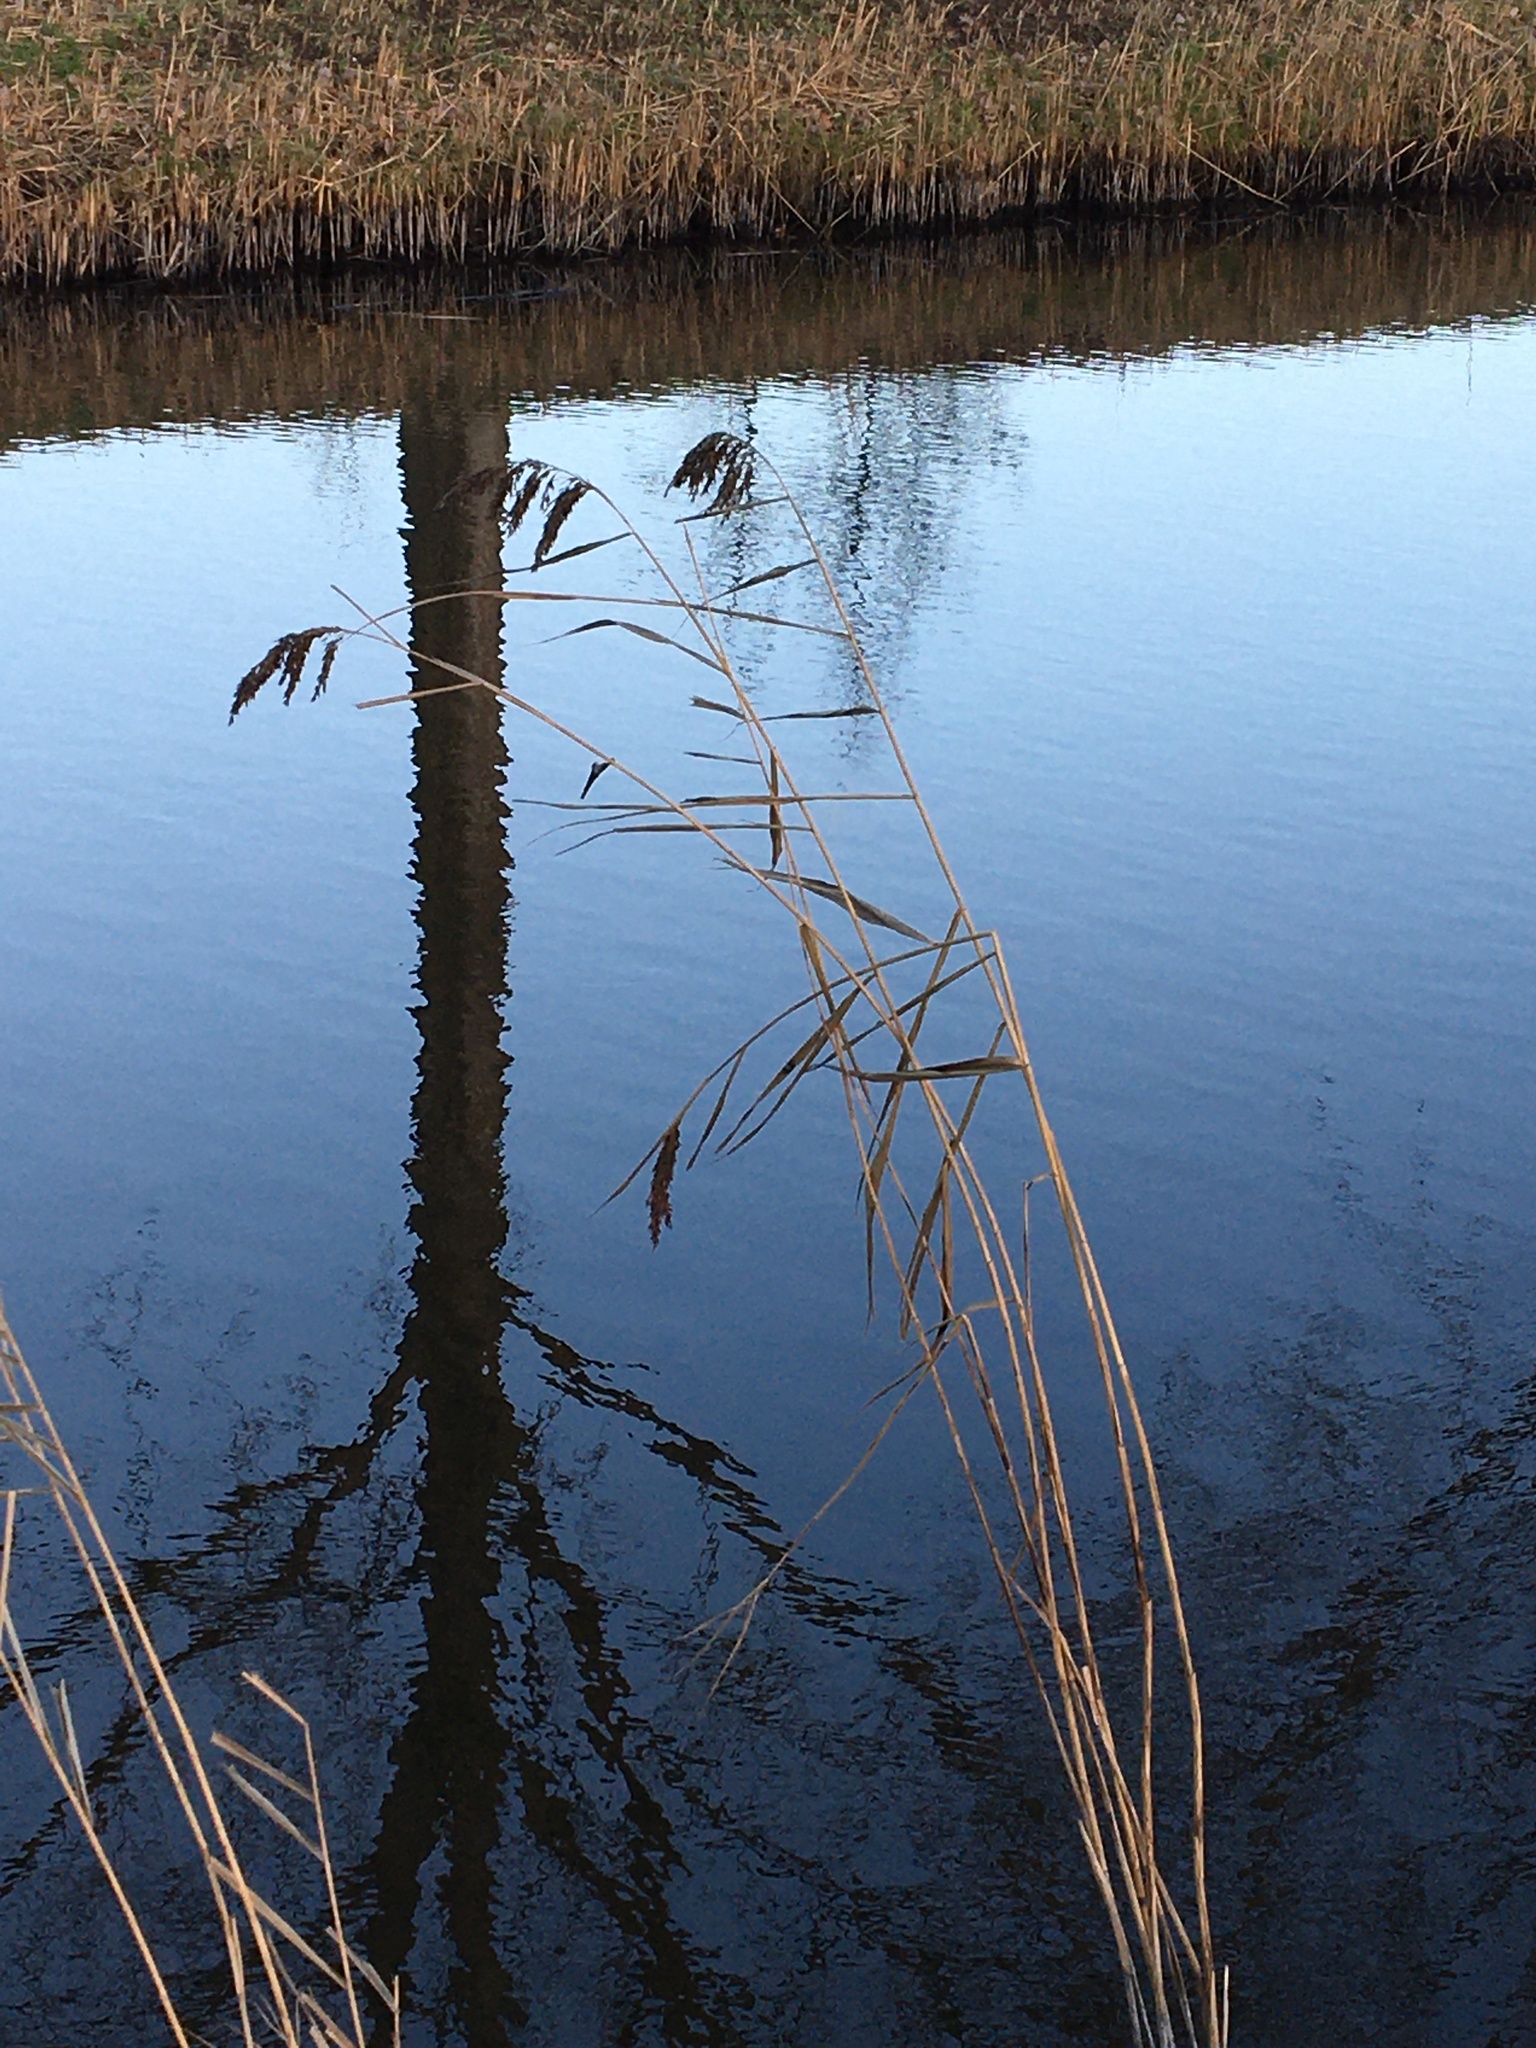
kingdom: Plantae
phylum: Tracheophyta
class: Liliopsida
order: Poales
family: Poaceae
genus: Phragmites
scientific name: Phragmites australis
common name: Common reed
